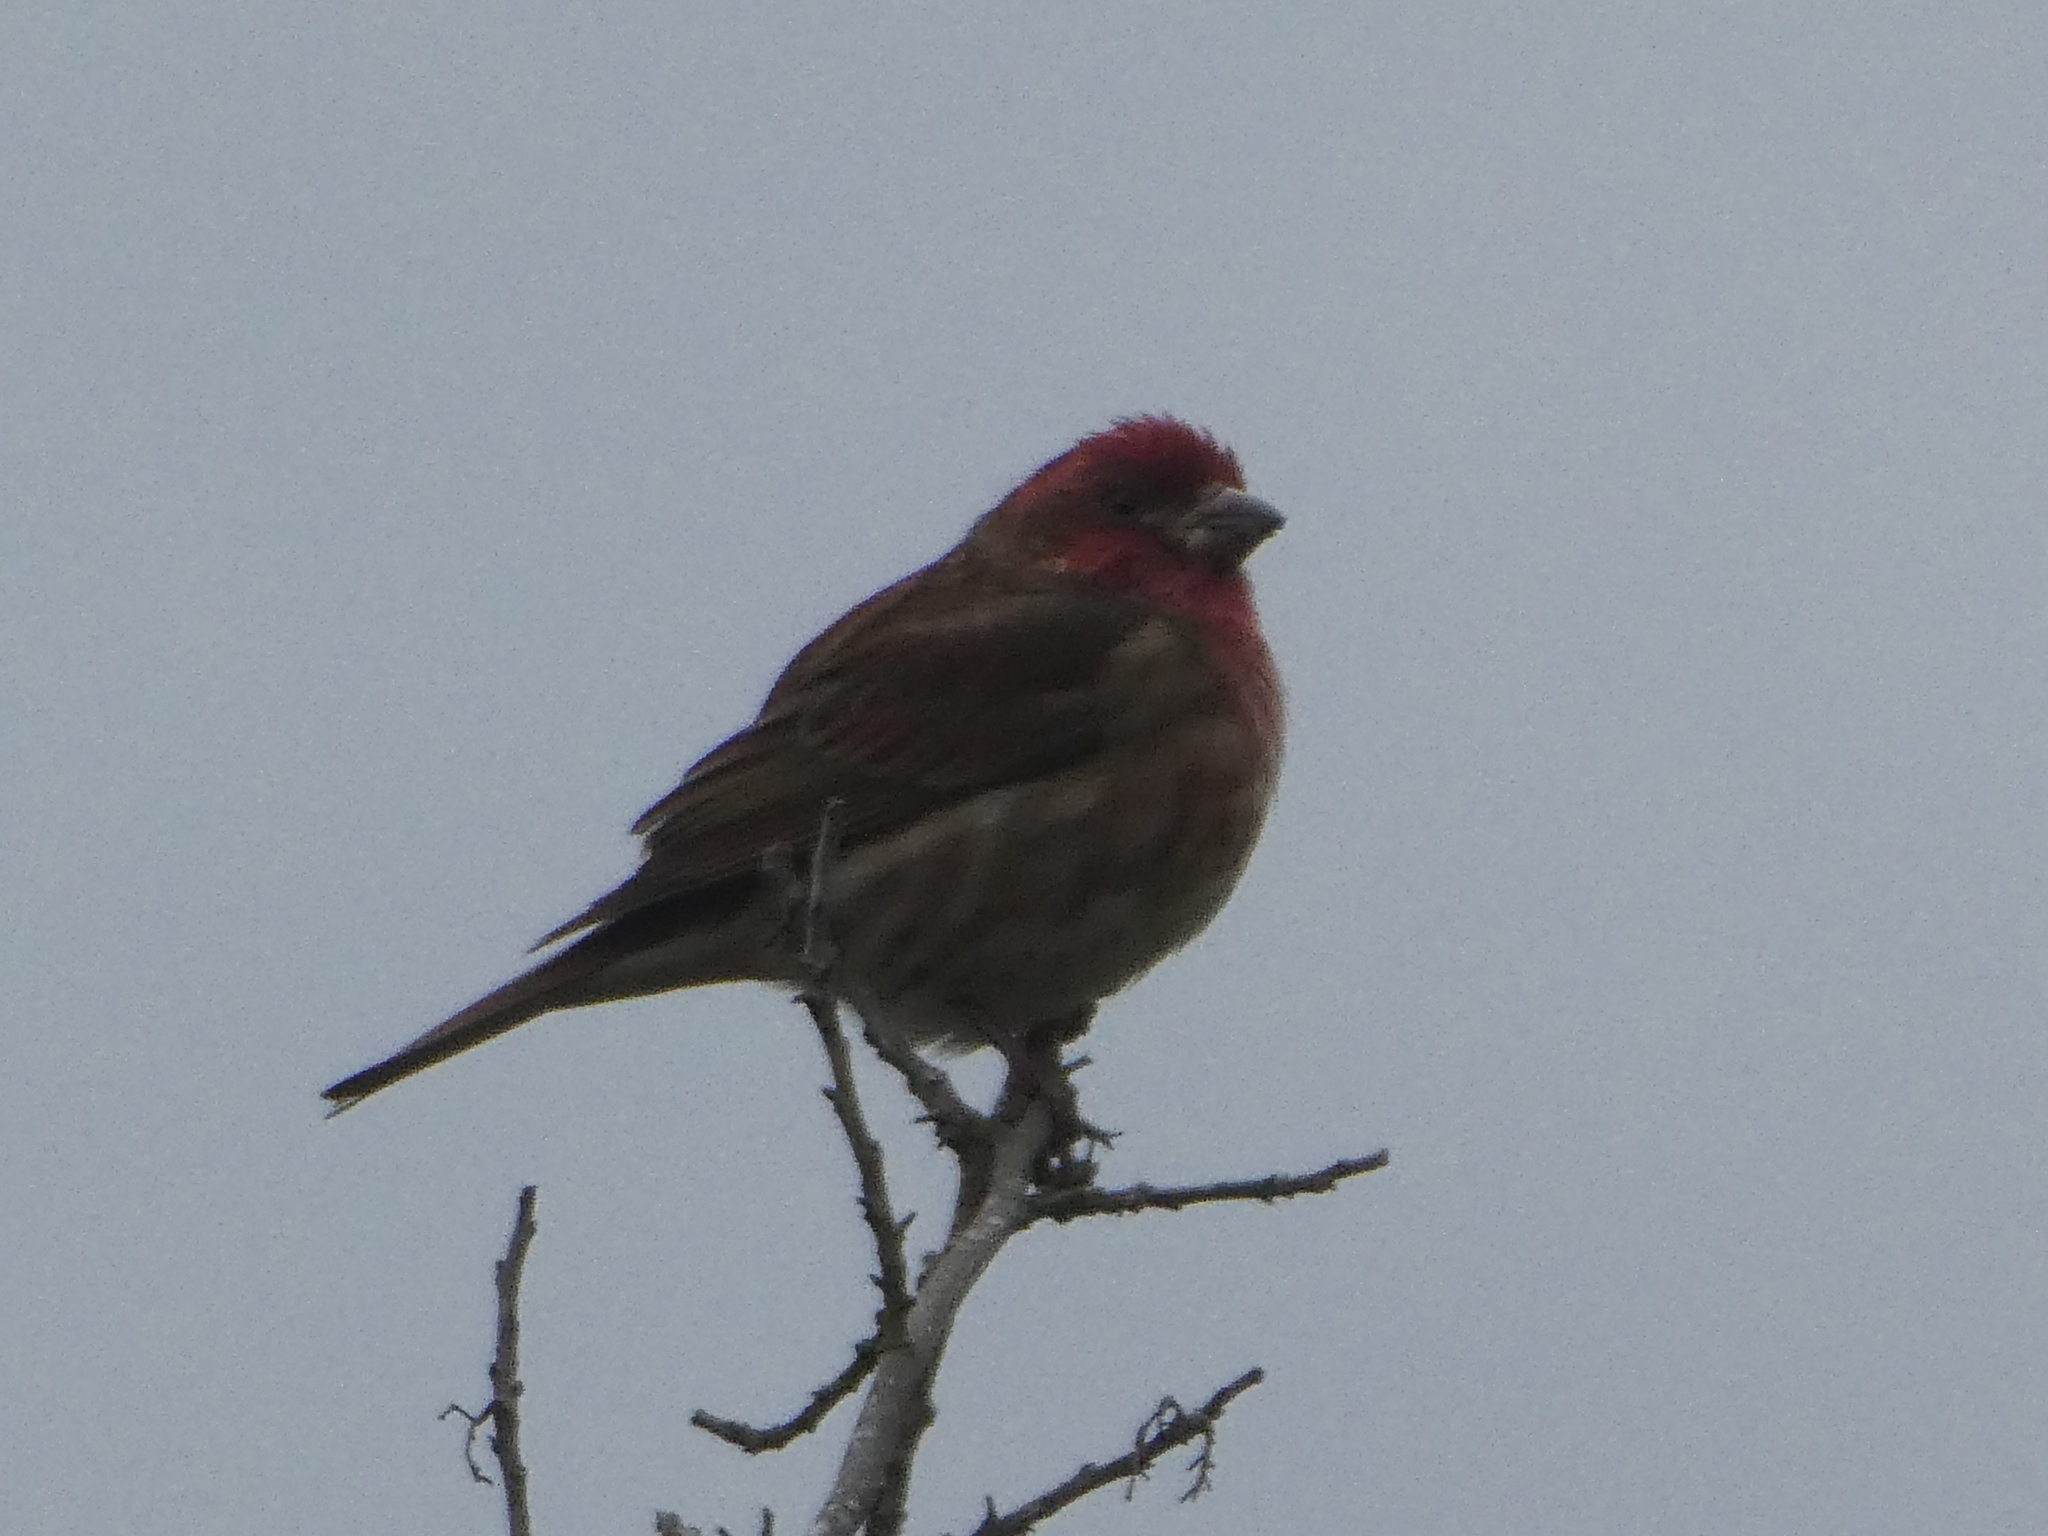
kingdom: Animalia
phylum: Chordata
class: Aves
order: Passeriformes
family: Fringillidae
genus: Haemorhous
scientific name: Haemorhous purpureus
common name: Purple finch
